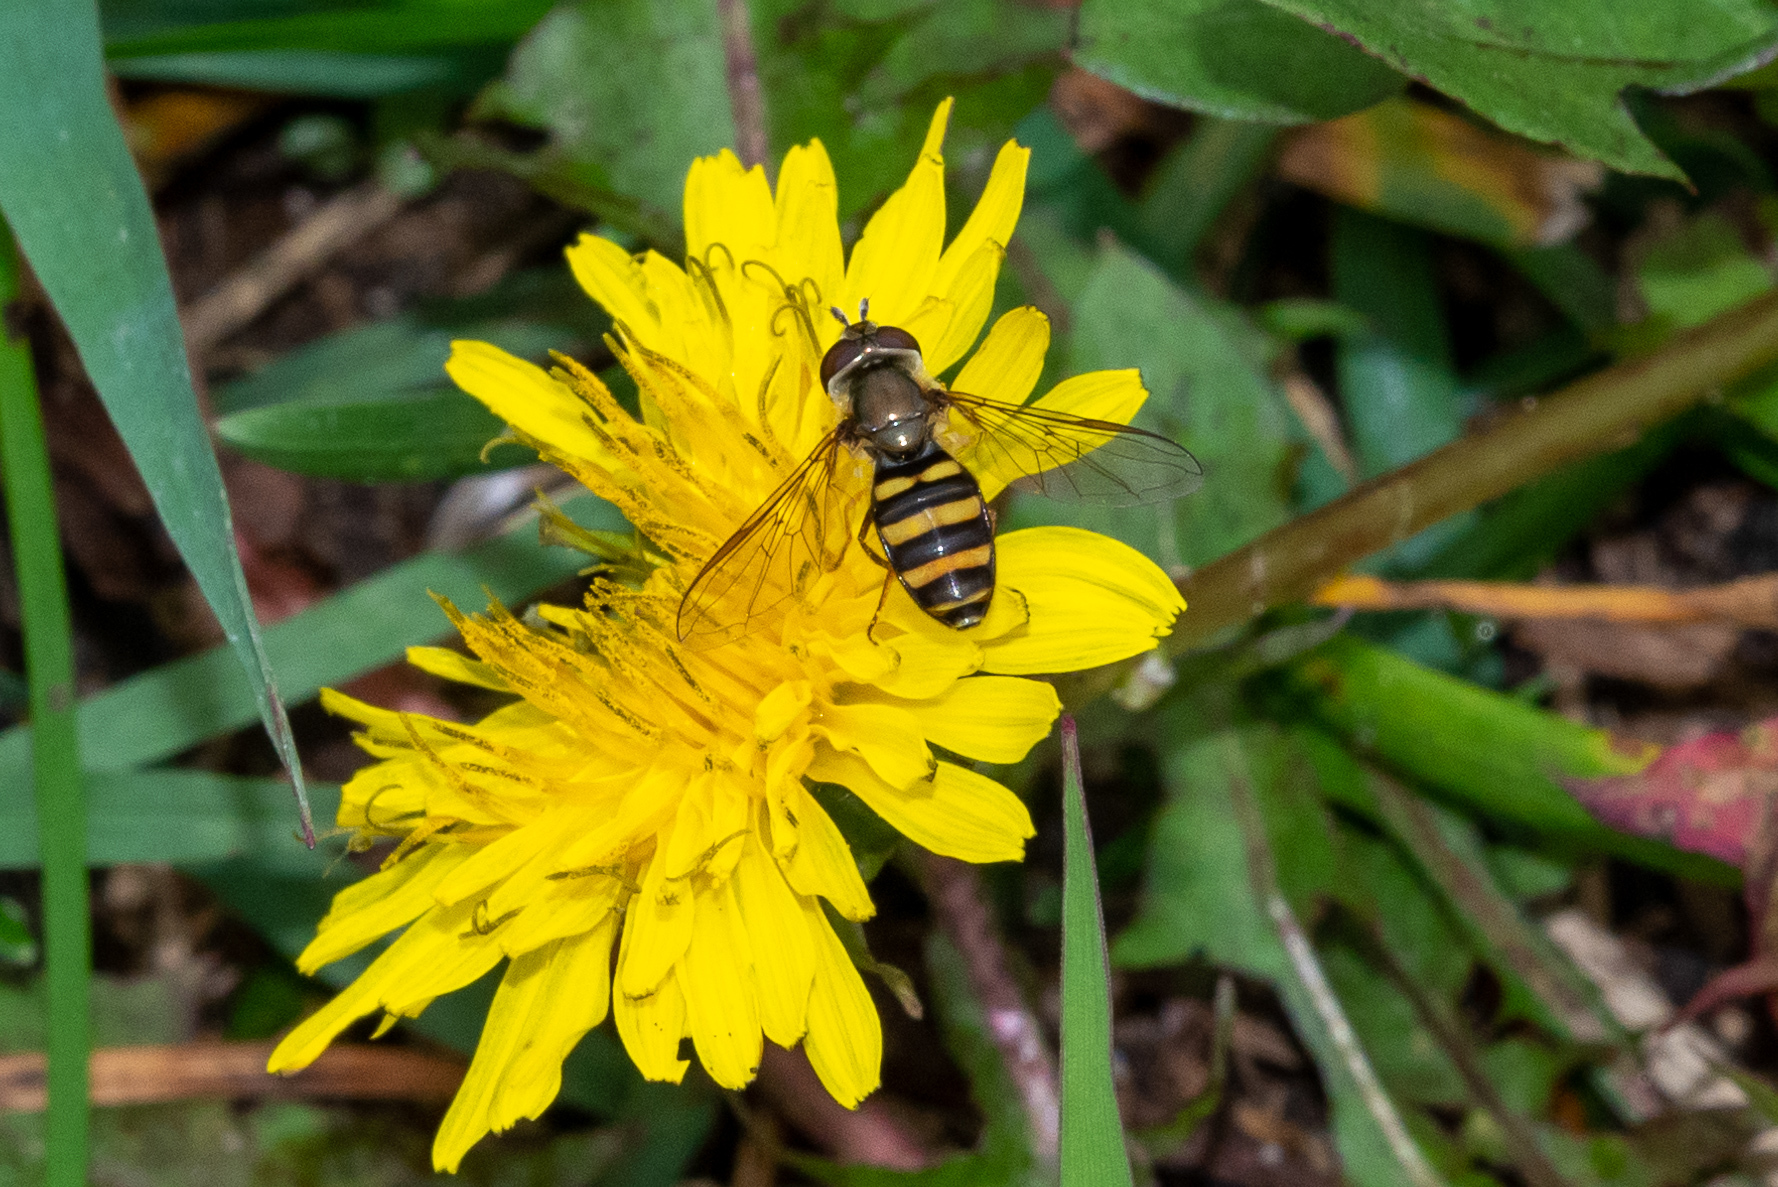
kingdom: Animalia
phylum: Arthropoda
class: Insecta
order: Diptera
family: Syrphidae
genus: Eupeodes
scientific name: Eupeodes
